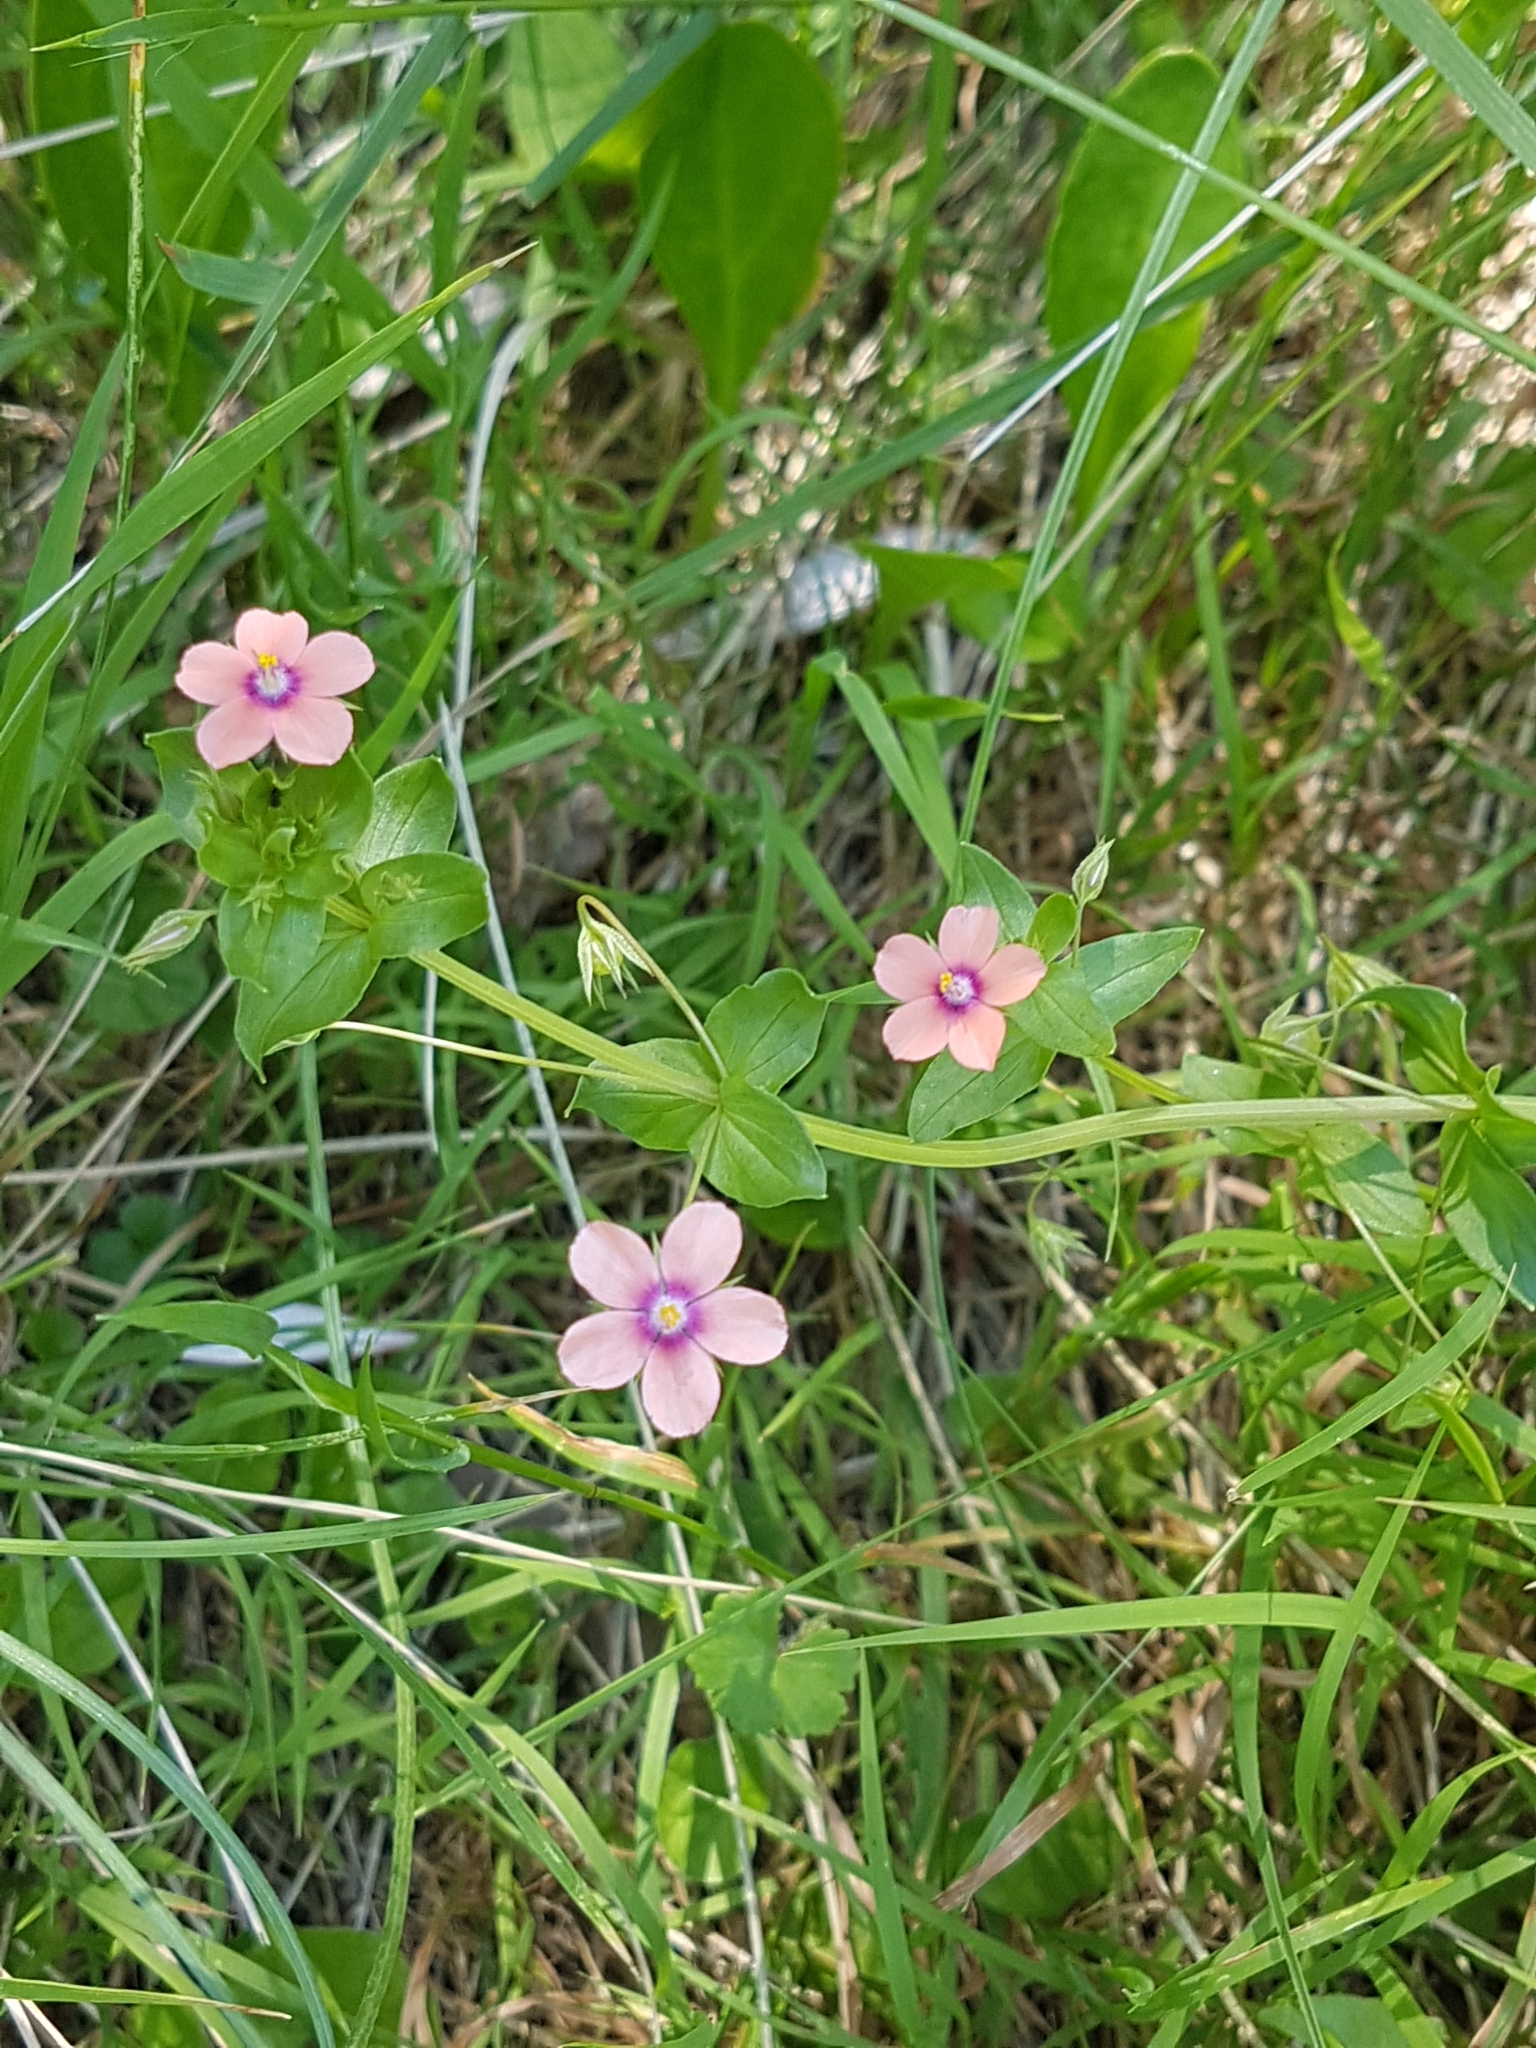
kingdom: Plantae
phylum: Tracheophyta
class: Magnoliopsida
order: Ericales
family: Primulaceae
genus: Lysimachia
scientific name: Lysimachia arvensis
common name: Scarlet pimpernel
